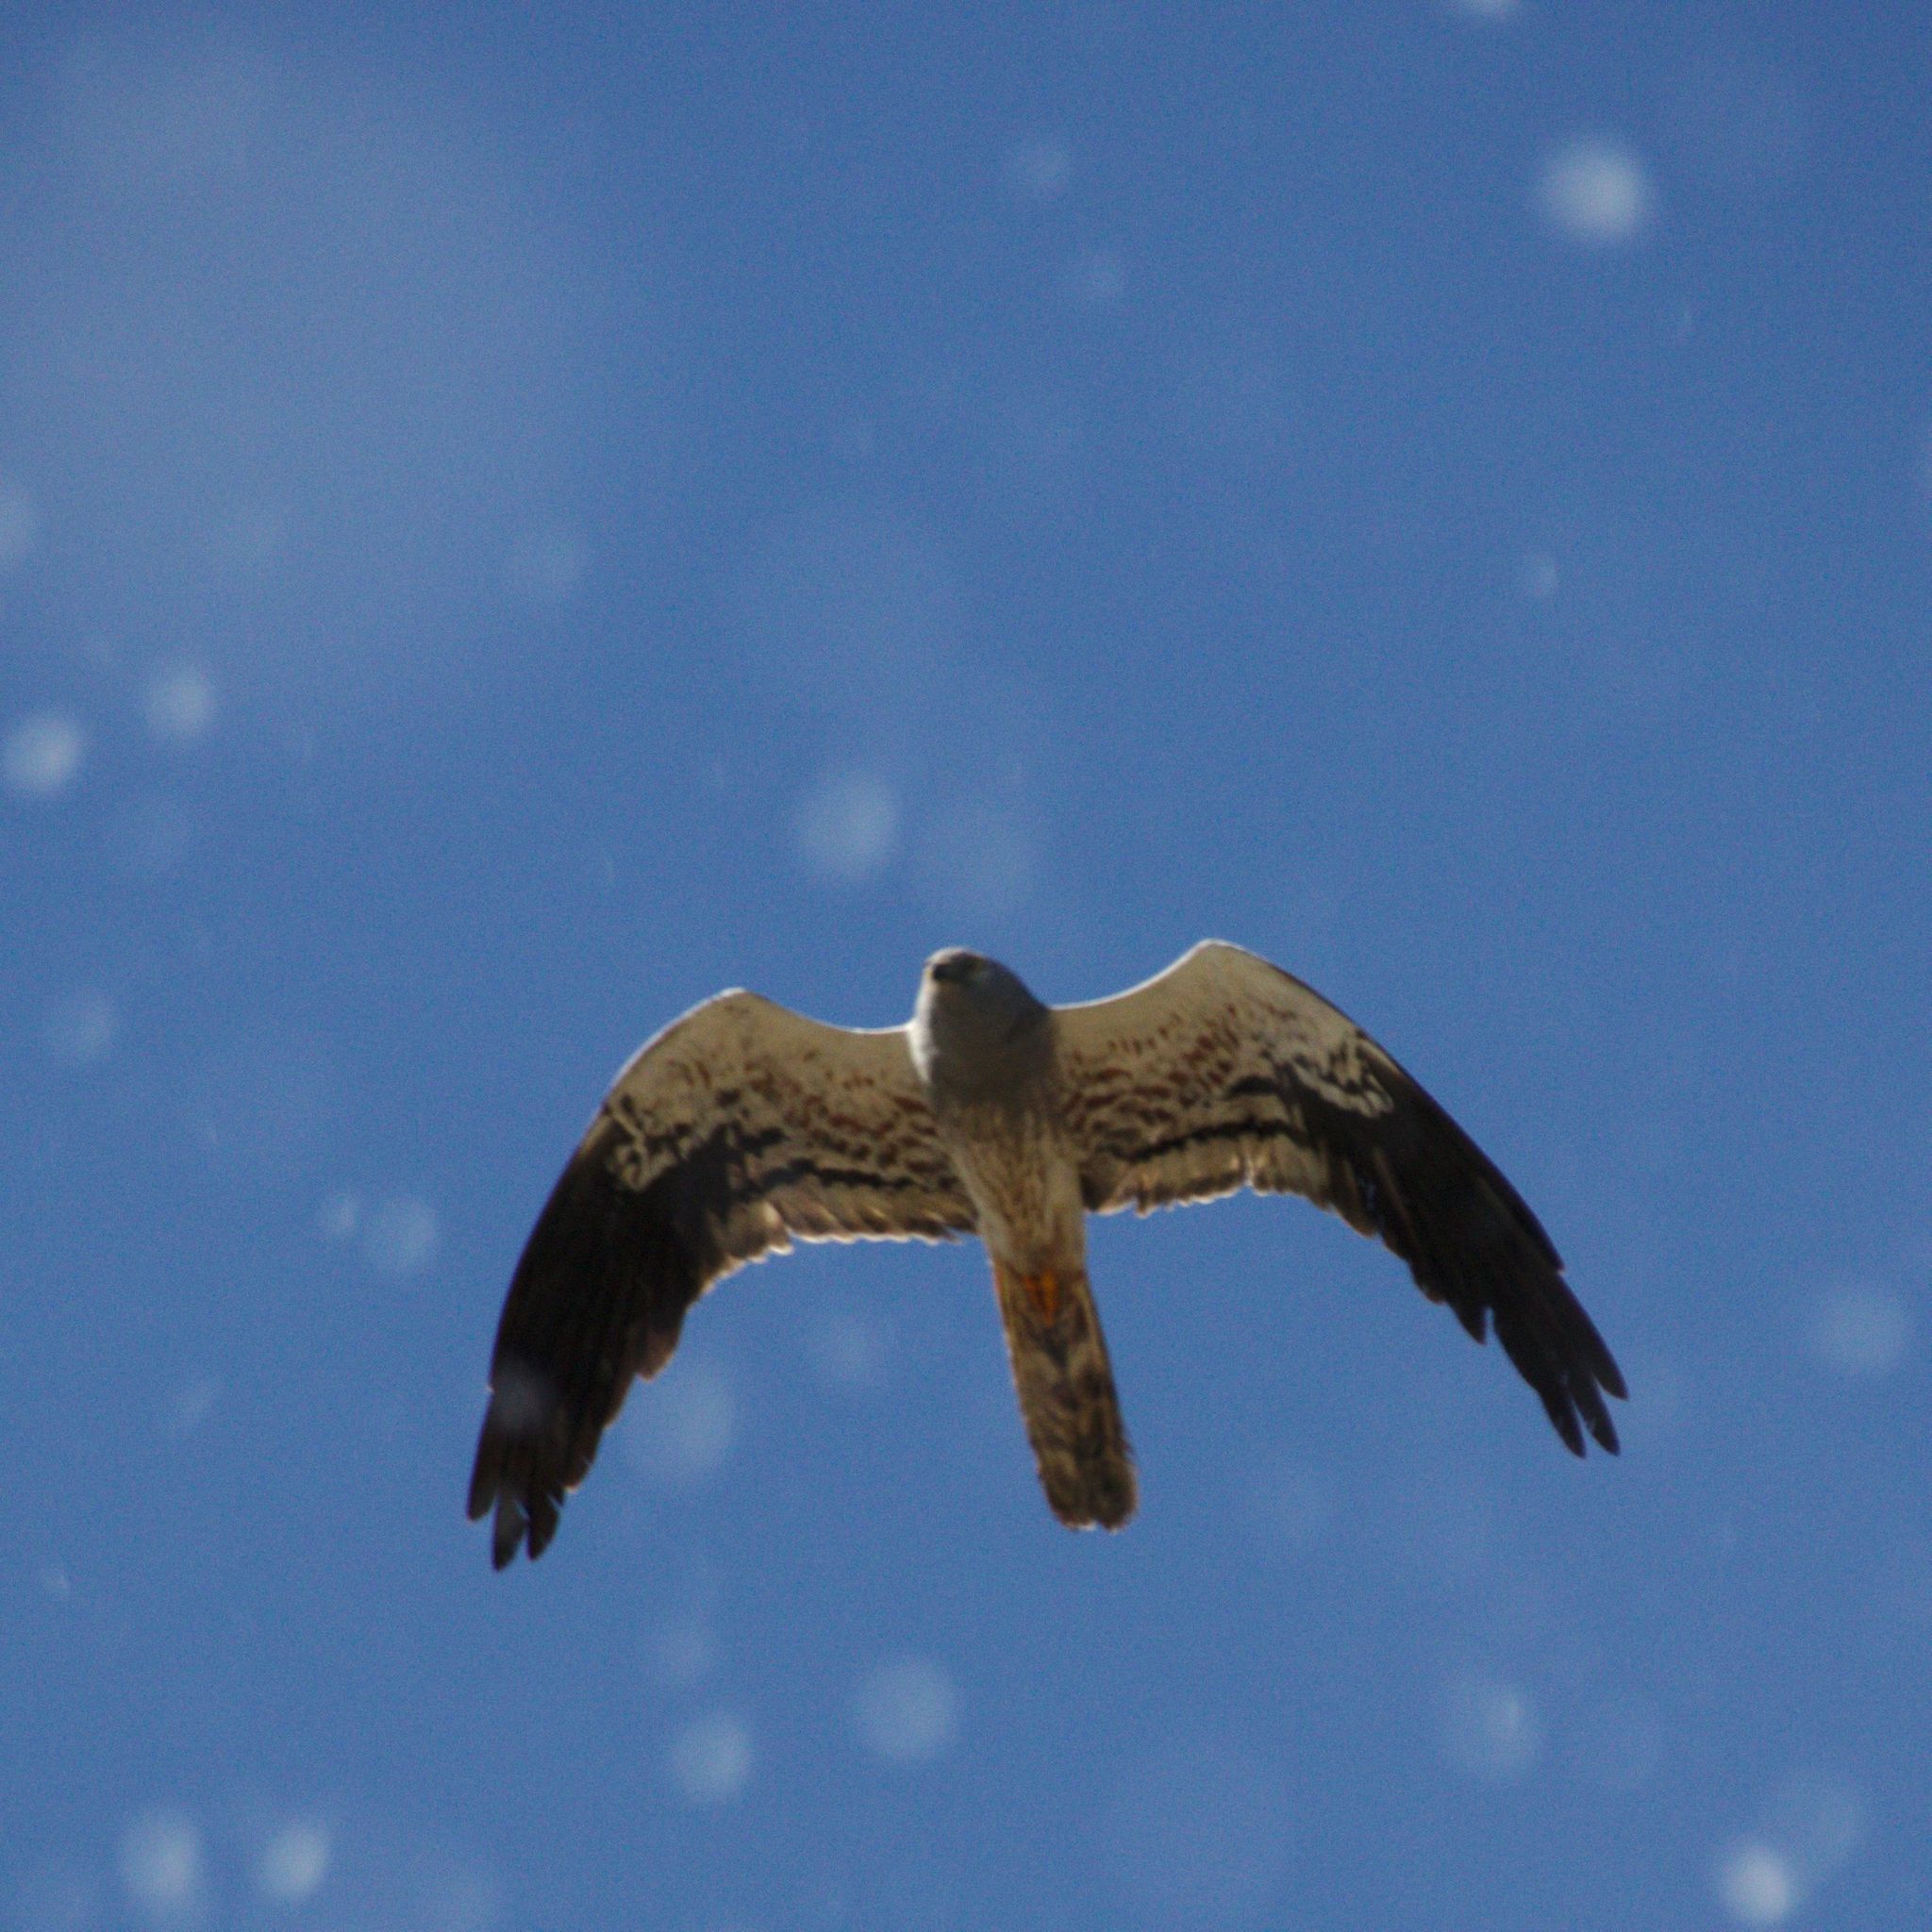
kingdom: Animalia
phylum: Chordata
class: Aves
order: Accipitriformes
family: Accipitridae
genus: Circus
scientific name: Circus pygargus
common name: Montagu's harrier
